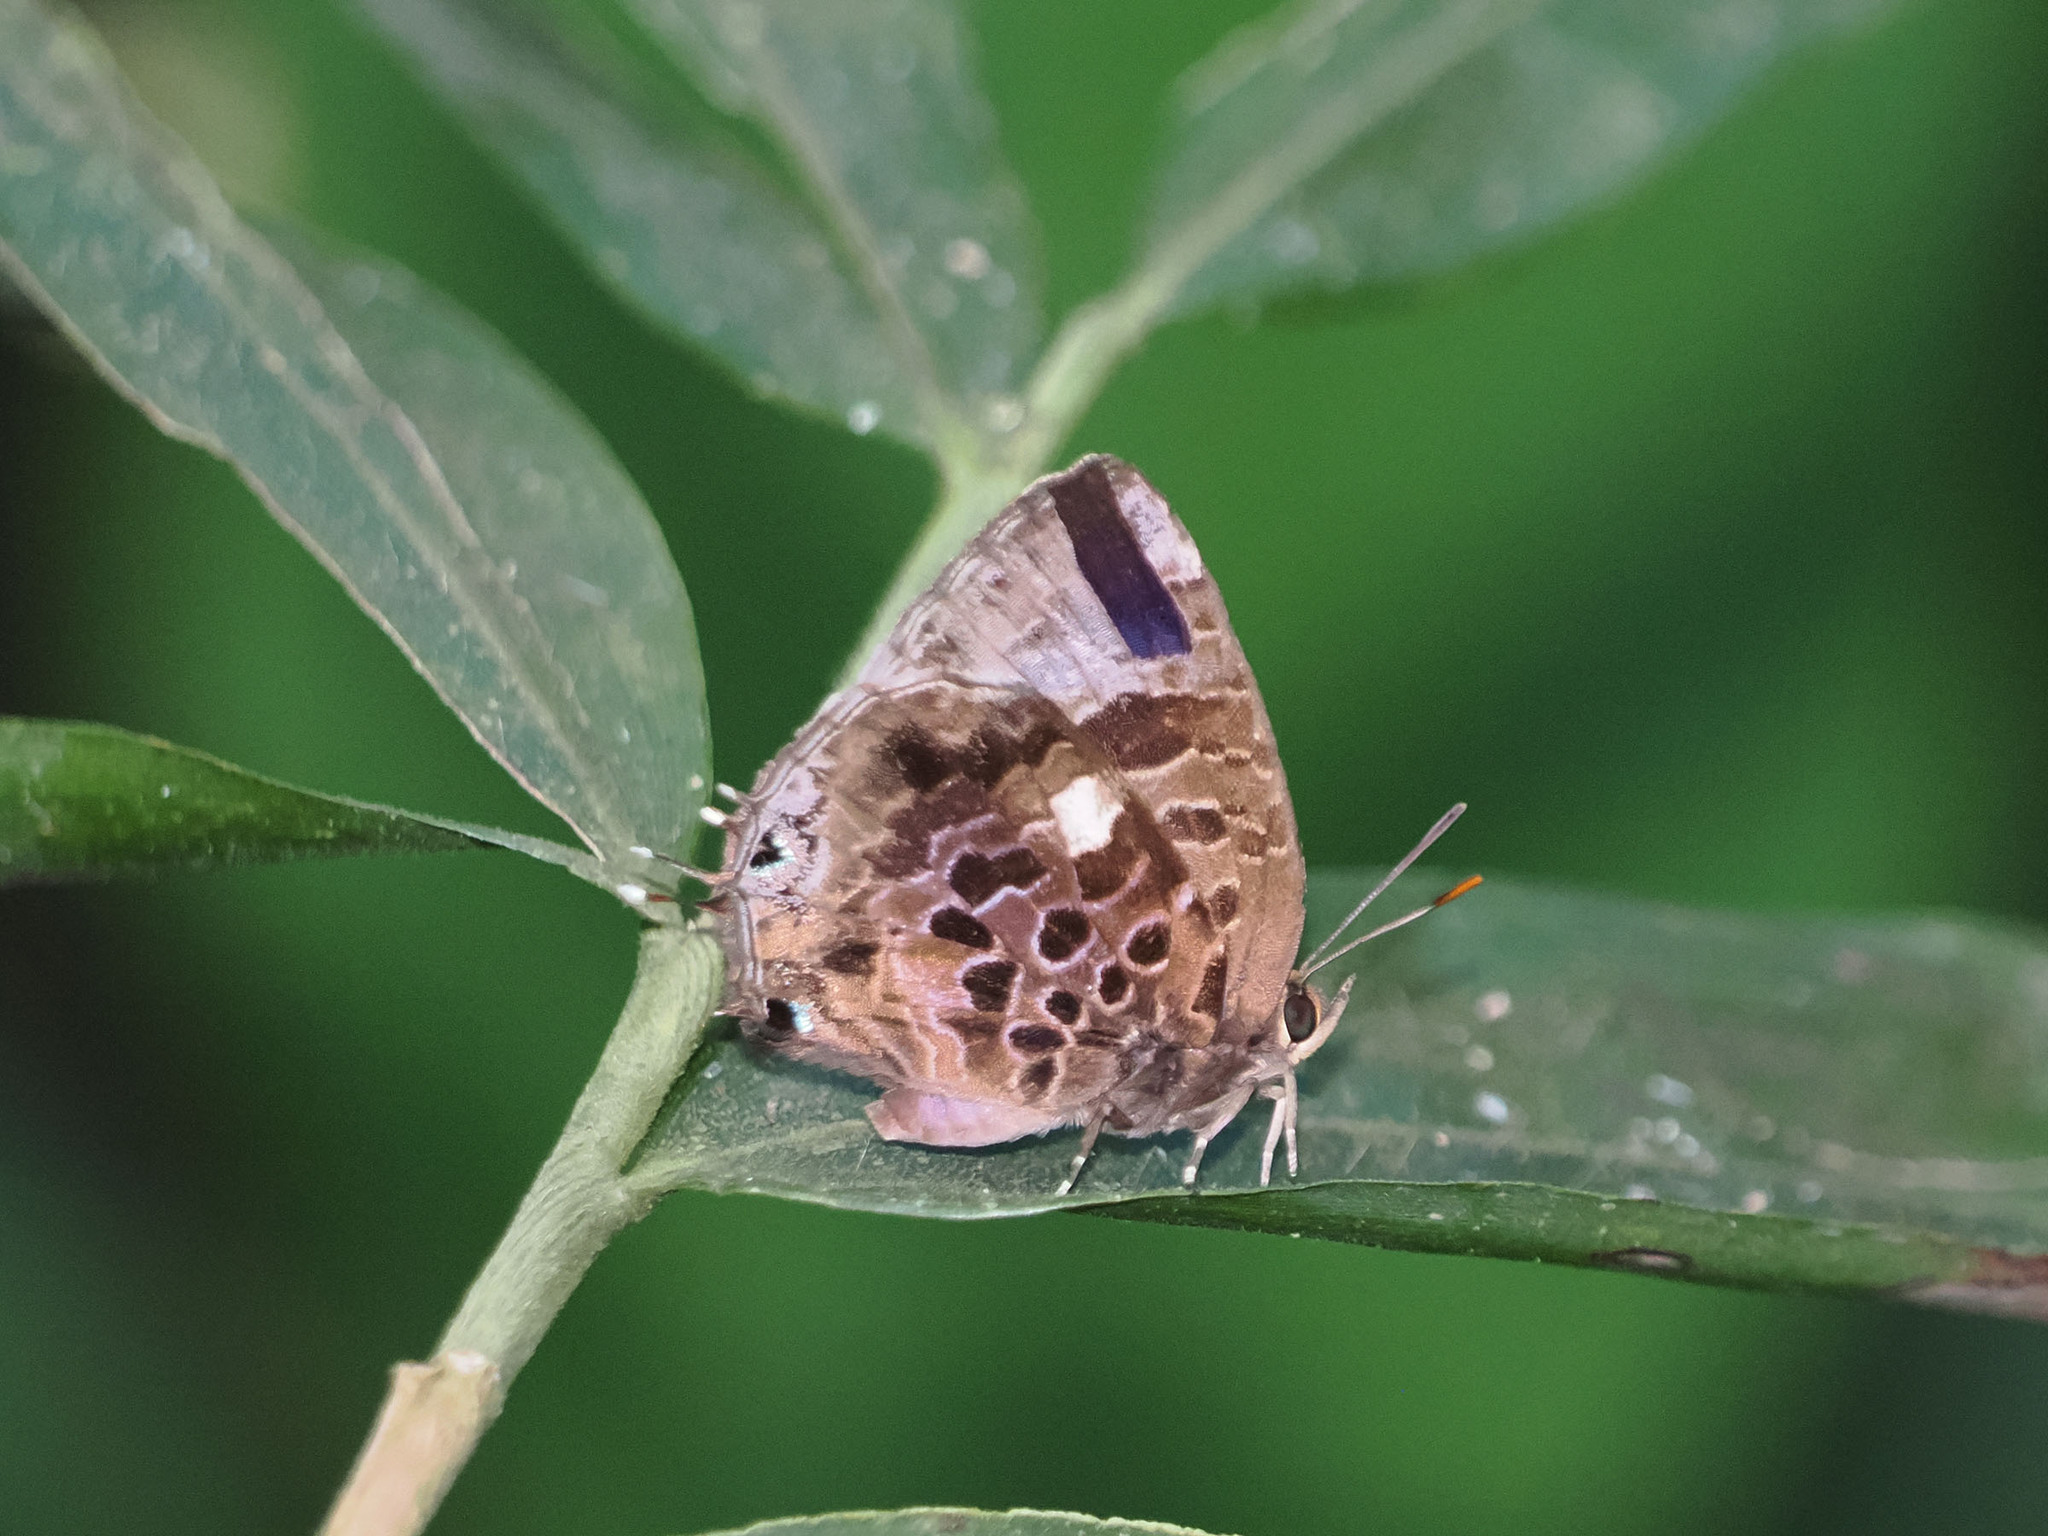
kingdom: Animalia
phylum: Arthropoda
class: Insecta
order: Lepidoptera
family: Lycaenidae
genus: Arhopala
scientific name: Arhopala abseus
